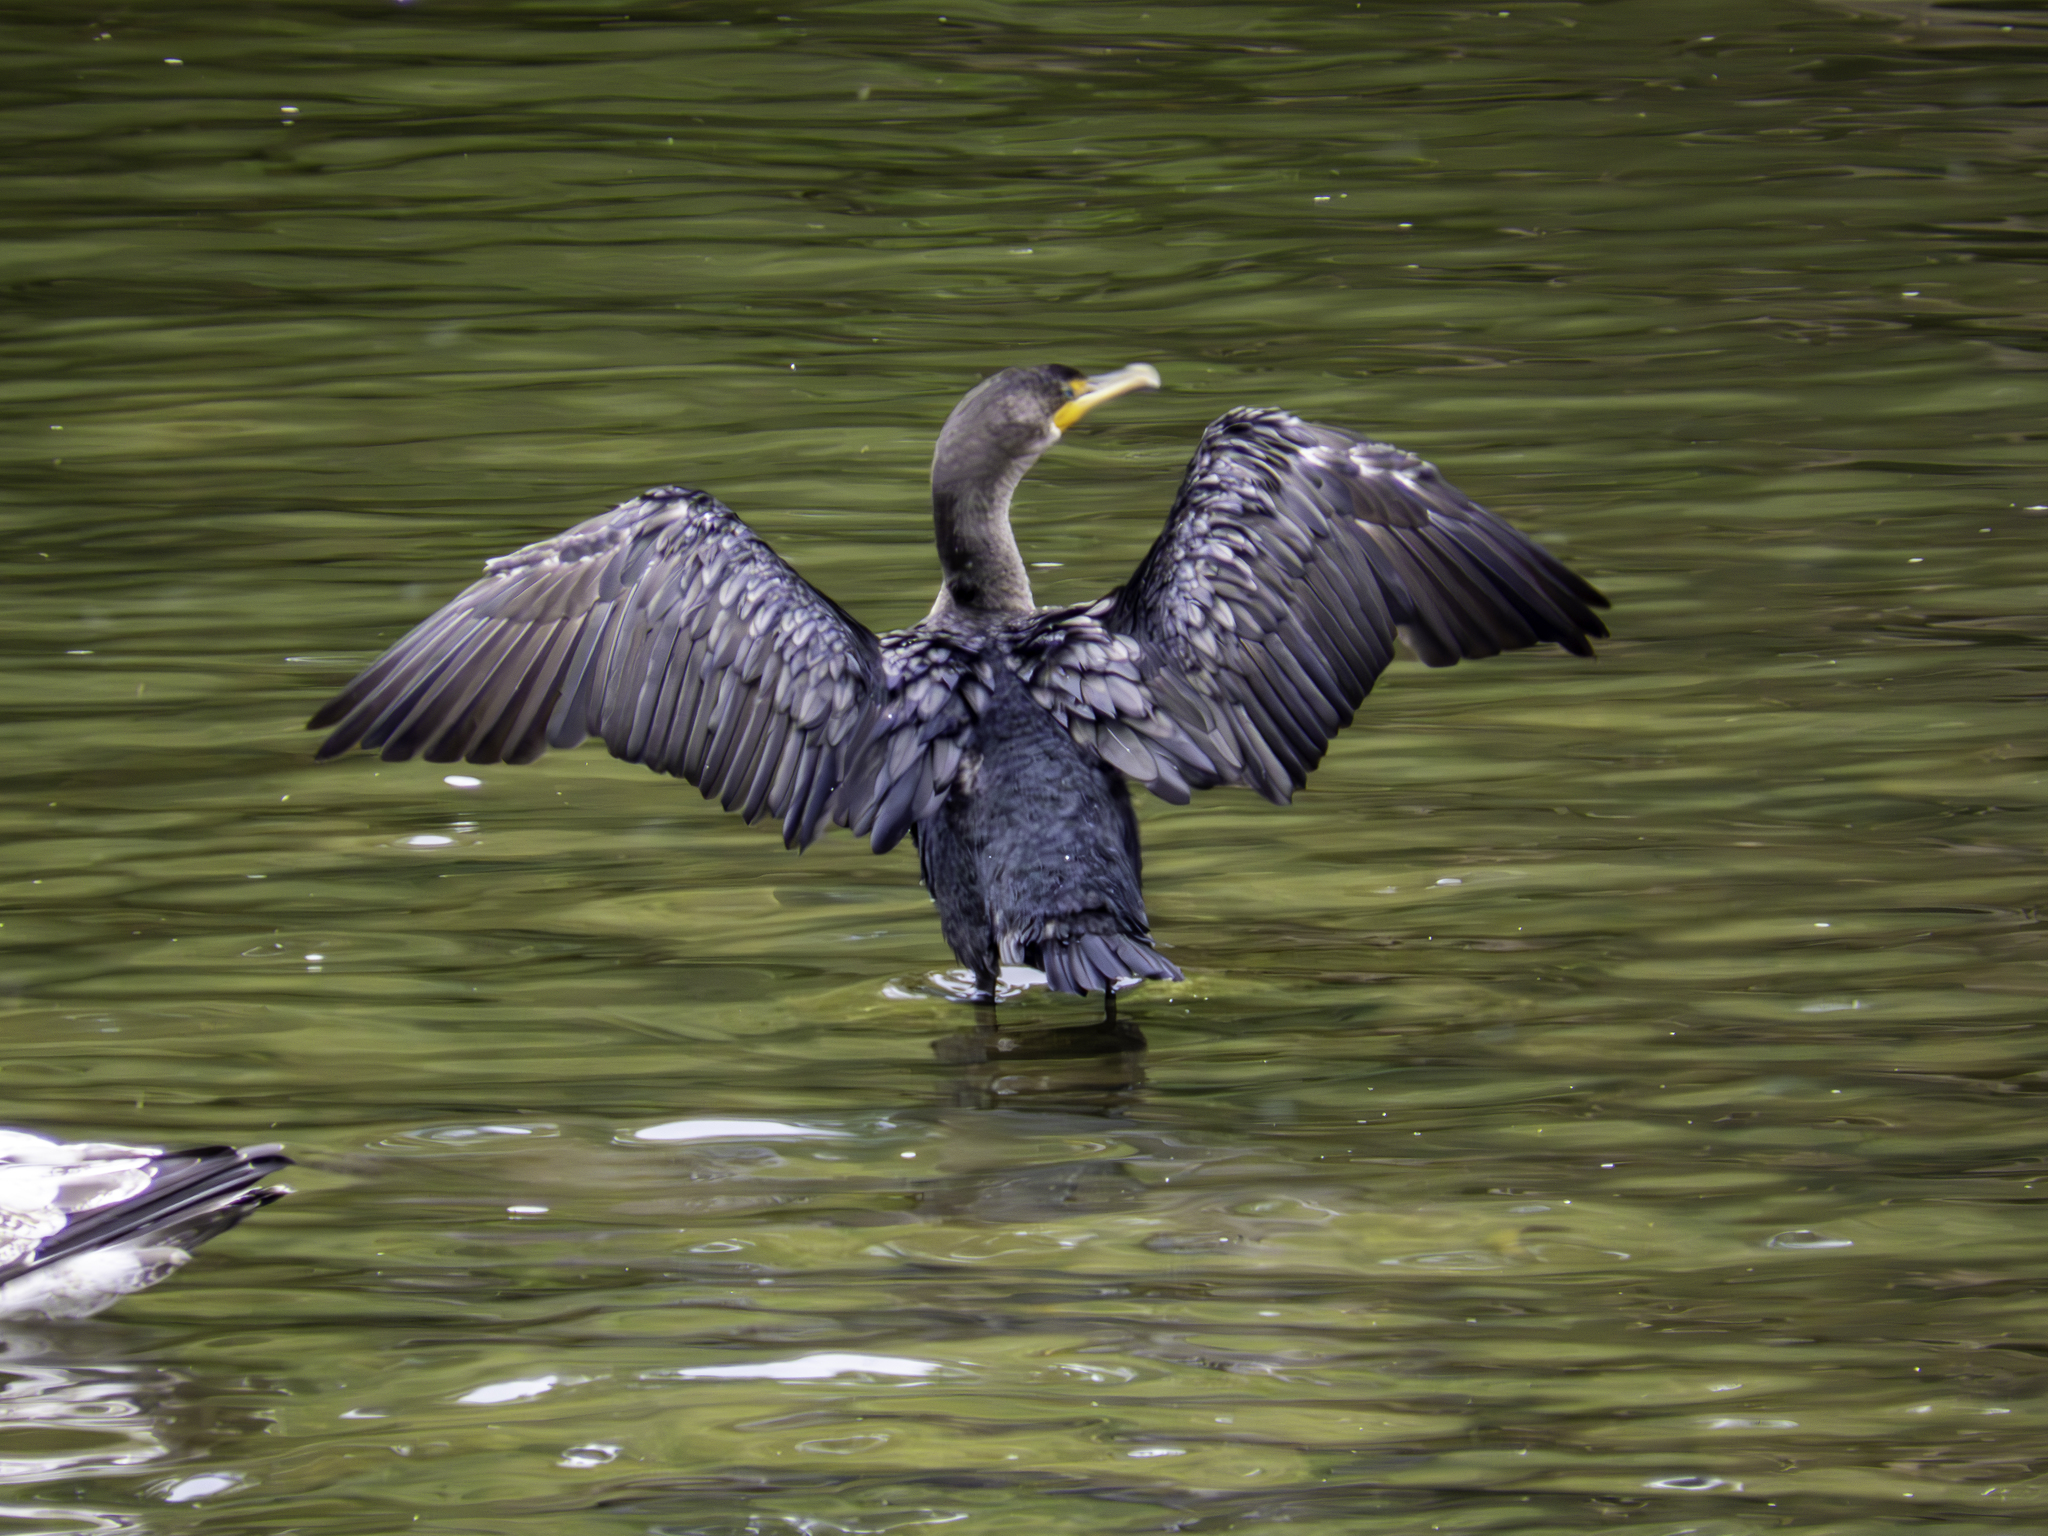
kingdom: Animalia
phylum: Chordata
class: Aves
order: Suliformes
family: Phalacrocoracidae
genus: Phalacrocorax
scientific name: Phalacrocorax auritus
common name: Double-crested cormorant
